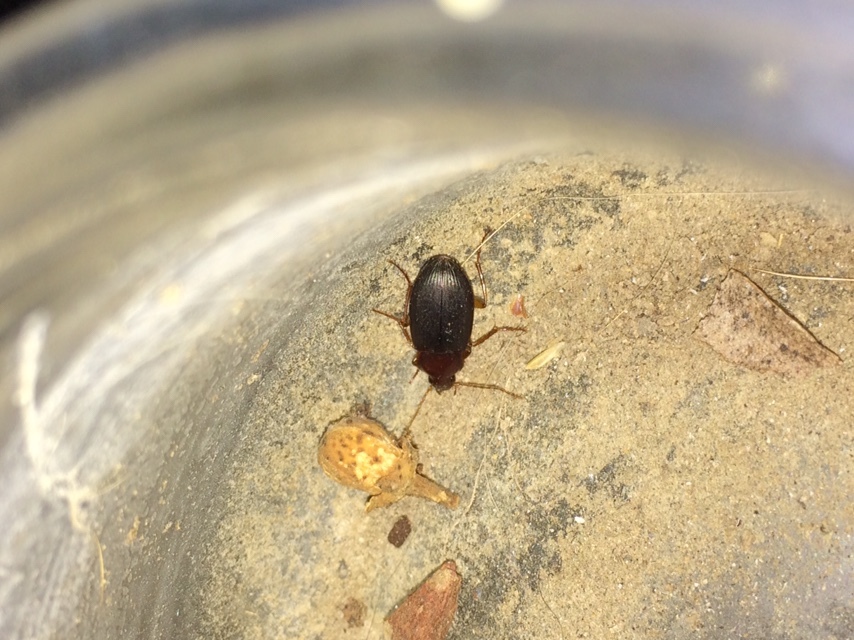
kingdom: Animalia
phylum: Arthropoda
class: Insecta
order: Coleoptera
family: Carabidae
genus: Calathus
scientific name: Calathus ruficollis
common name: Red-collared harp ground beetle
